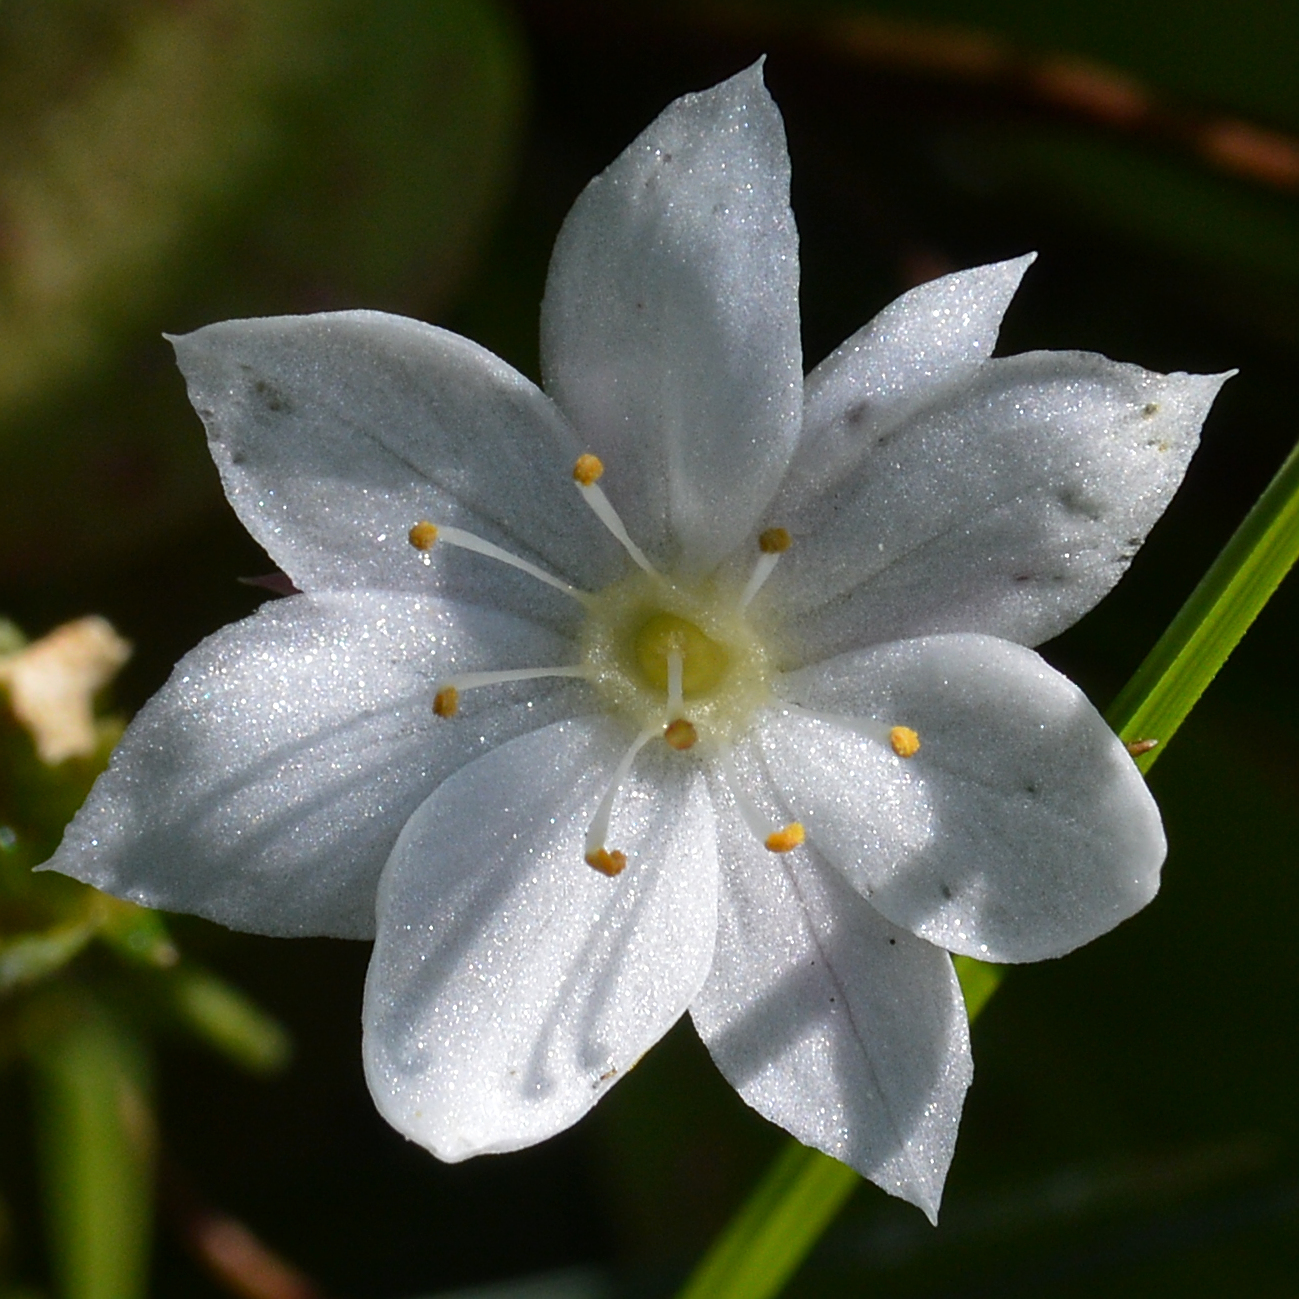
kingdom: Plantae
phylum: Tracheophyta
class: Magnoliopsida
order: Ericales
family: Primulaceae
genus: Lysimachia
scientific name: Lysimachia europaea
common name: Arctic starflower
